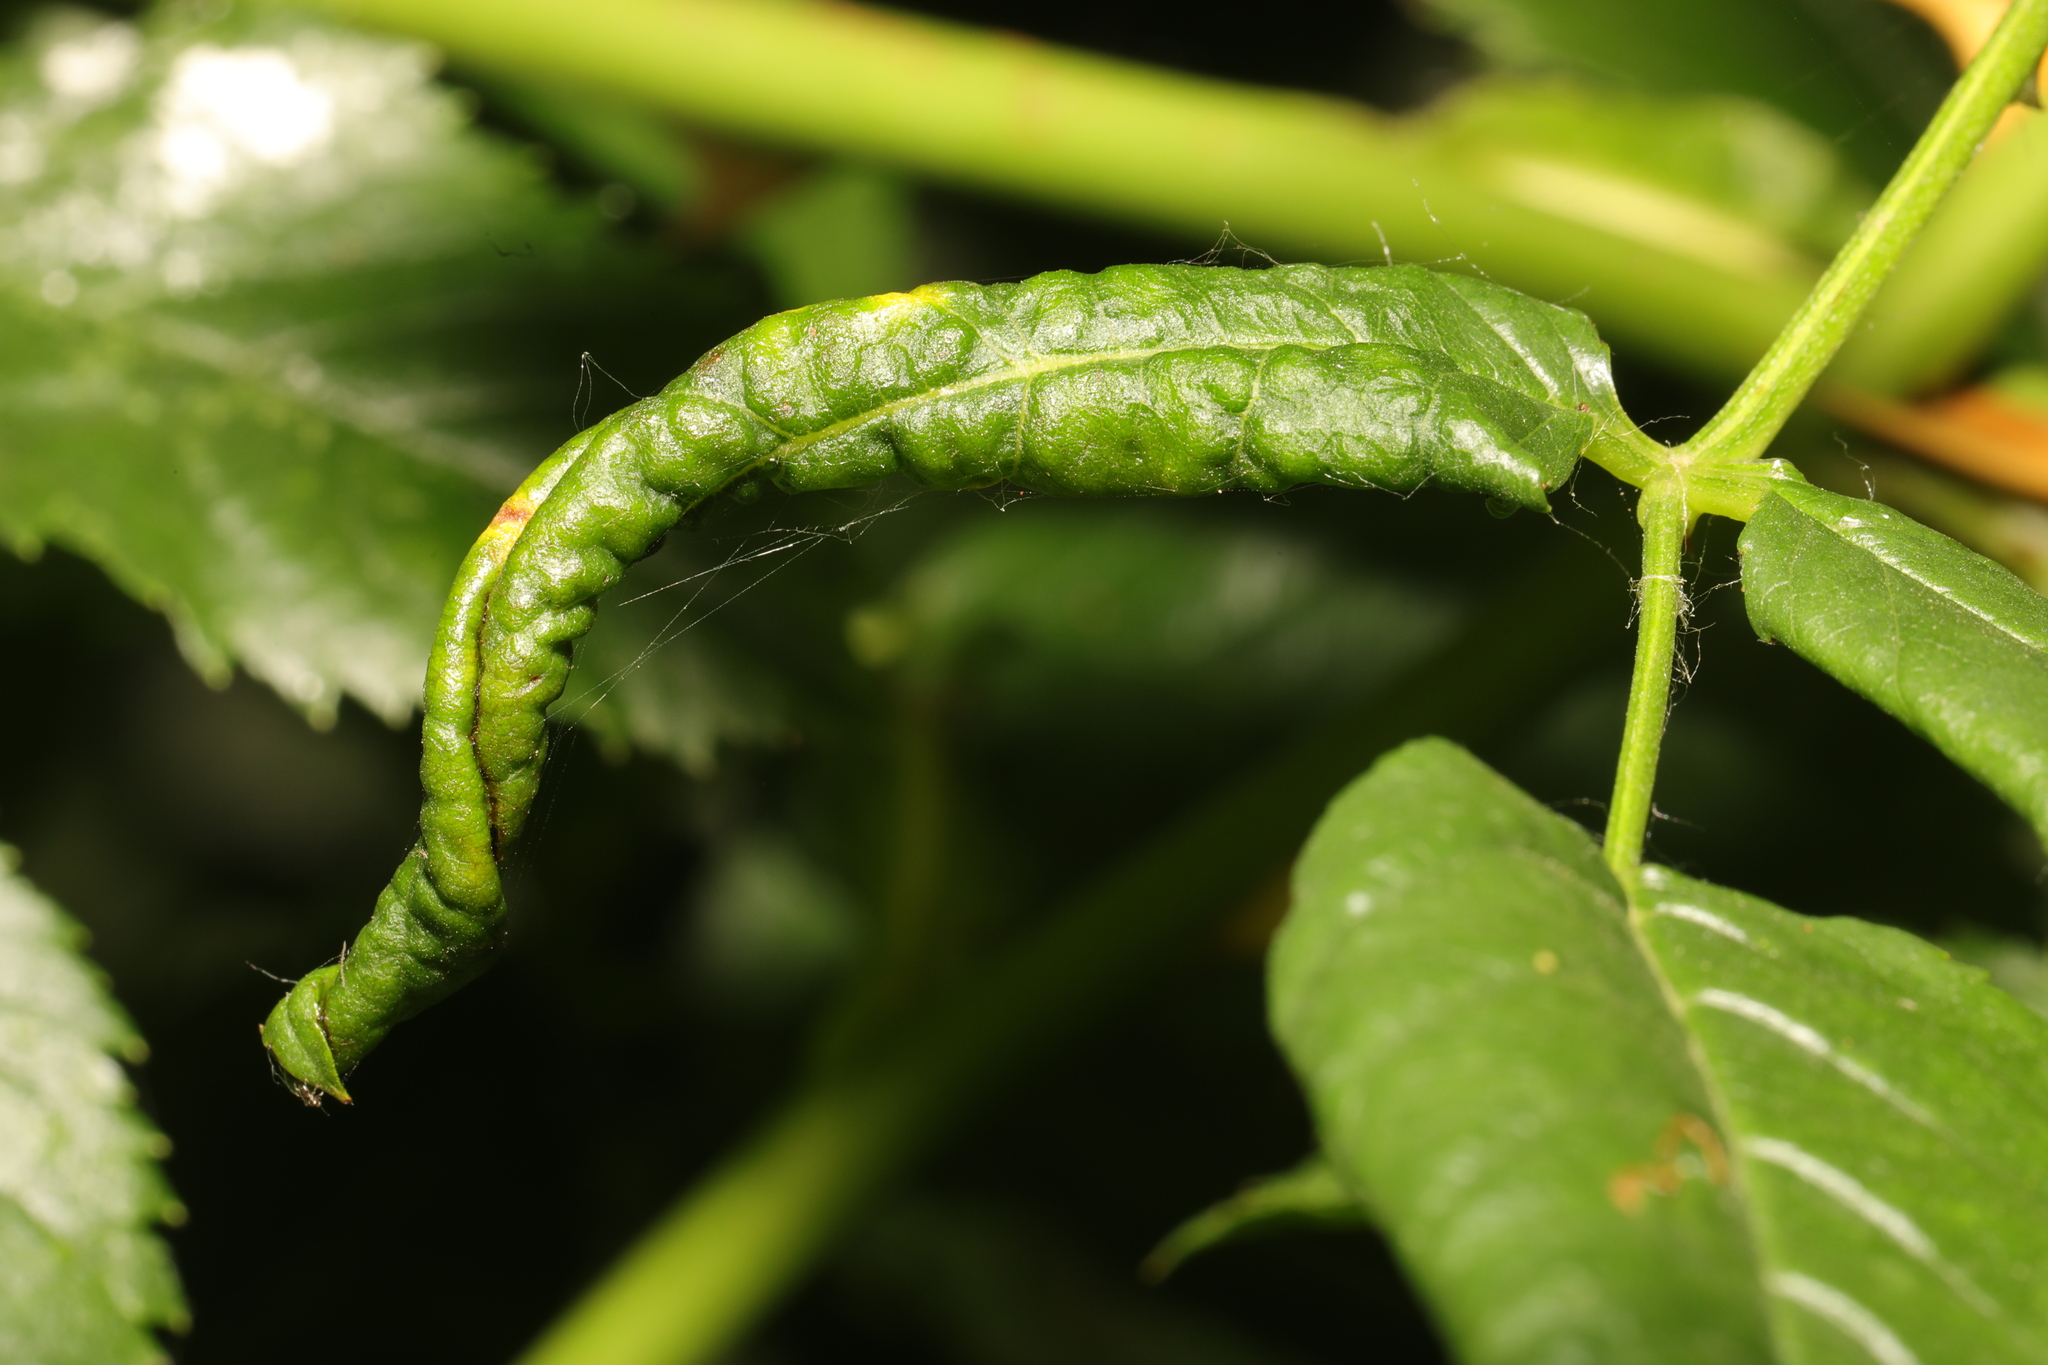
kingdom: Animalia
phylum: Arthropoda
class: Insecta
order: Hymenoptera
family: Tenthredinidae
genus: Blennocampa
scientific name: Blennocampa phyllocolpa
